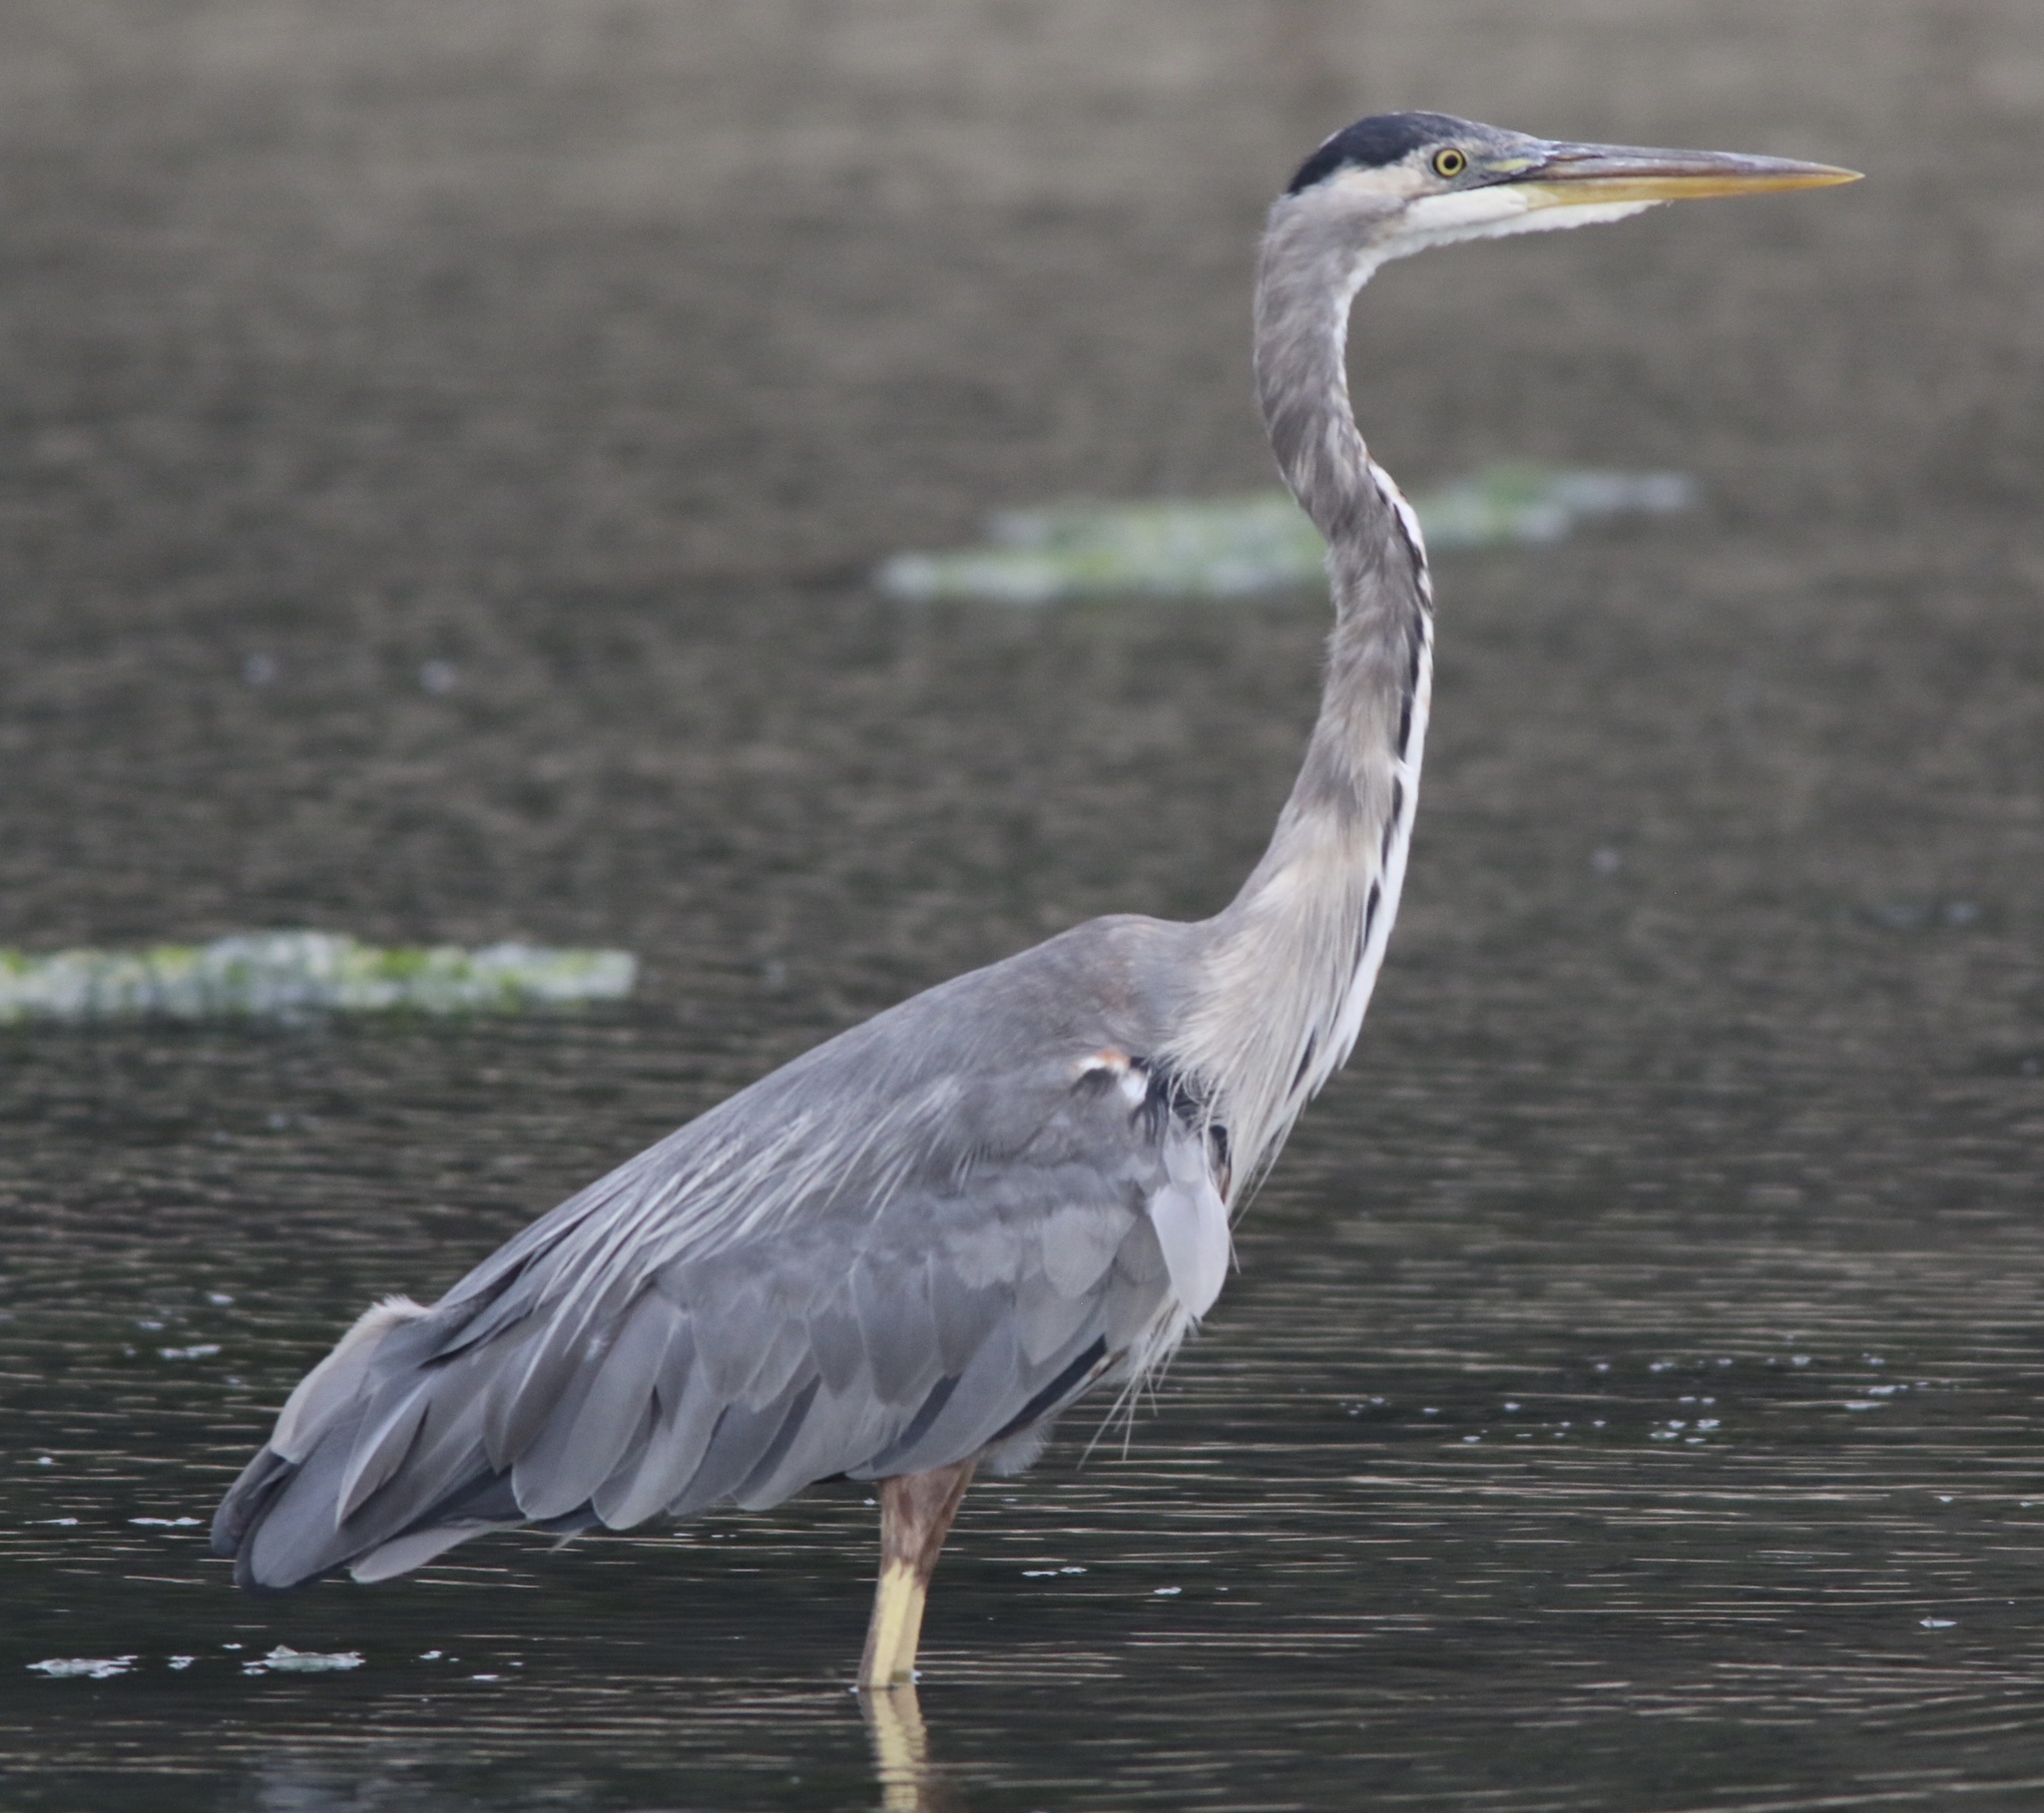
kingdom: Animalia
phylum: Chordata
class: Aves
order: Pelecaniformes
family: Ardeidae
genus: Ardea
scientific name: Ardea herodias
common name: Great blue heron
